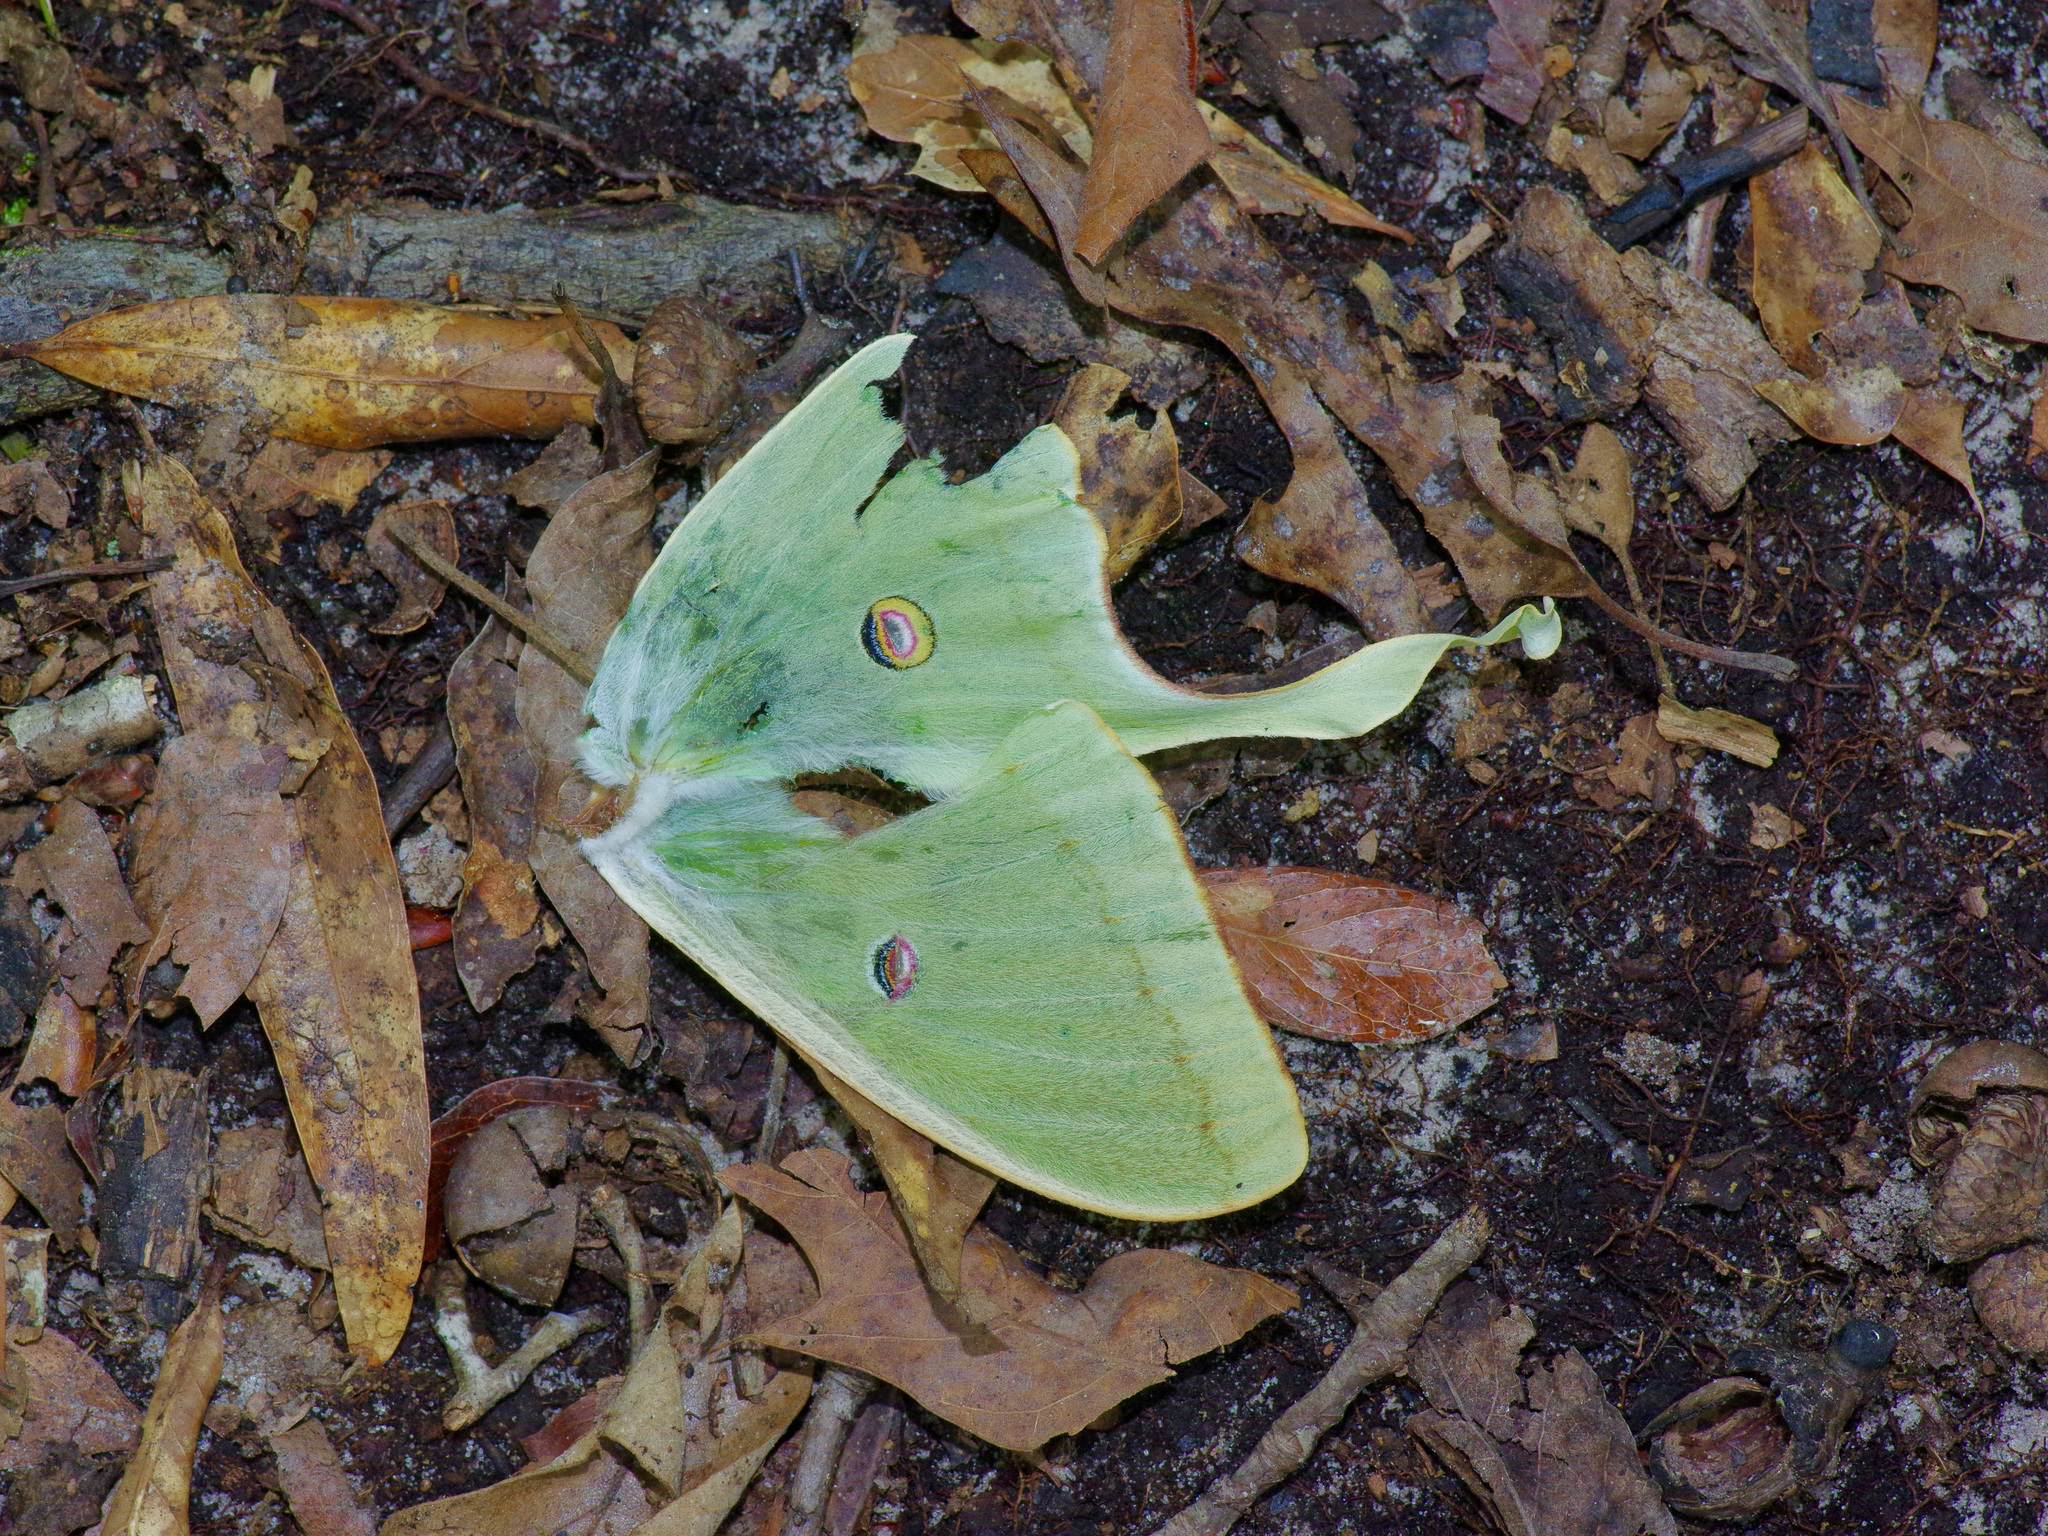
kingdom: Animalia
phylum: Arthropoda
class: Insecta
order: Lepidoptera
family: Saturniidae
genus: Actias
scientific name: Actias luna
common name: Luna moth
